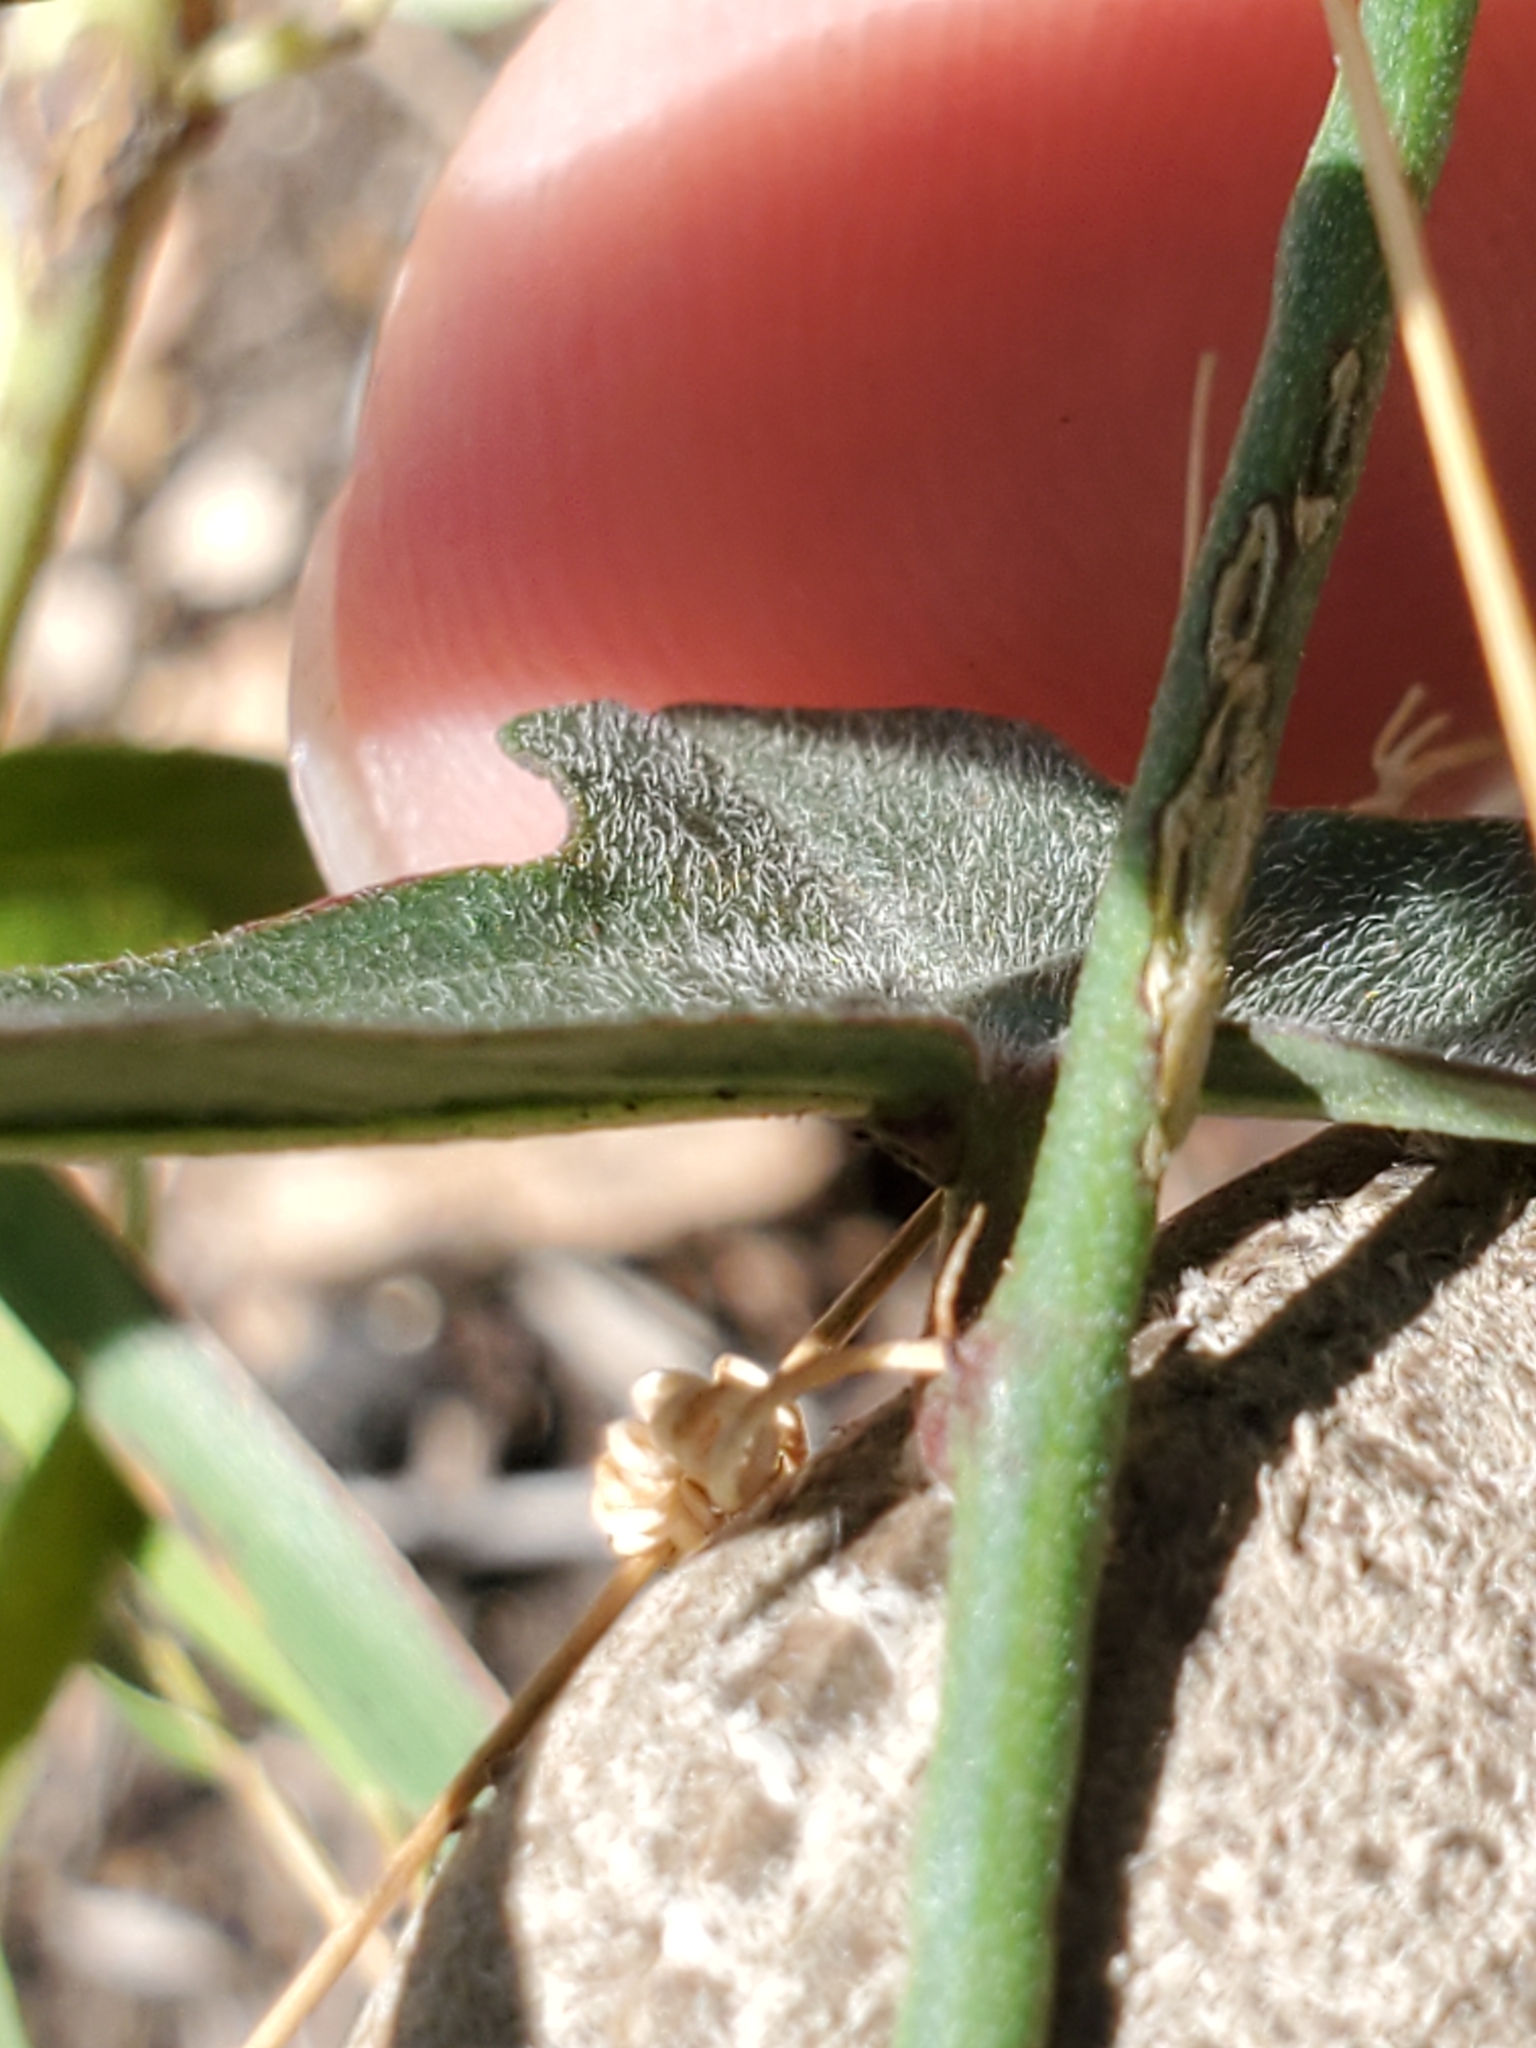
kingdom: Plantae
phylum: Tracheophyta
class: Magnoliopsida
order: Malpighiales
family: Passifloraceae
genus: Passiflora
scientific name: Passiflora tenuiloba
